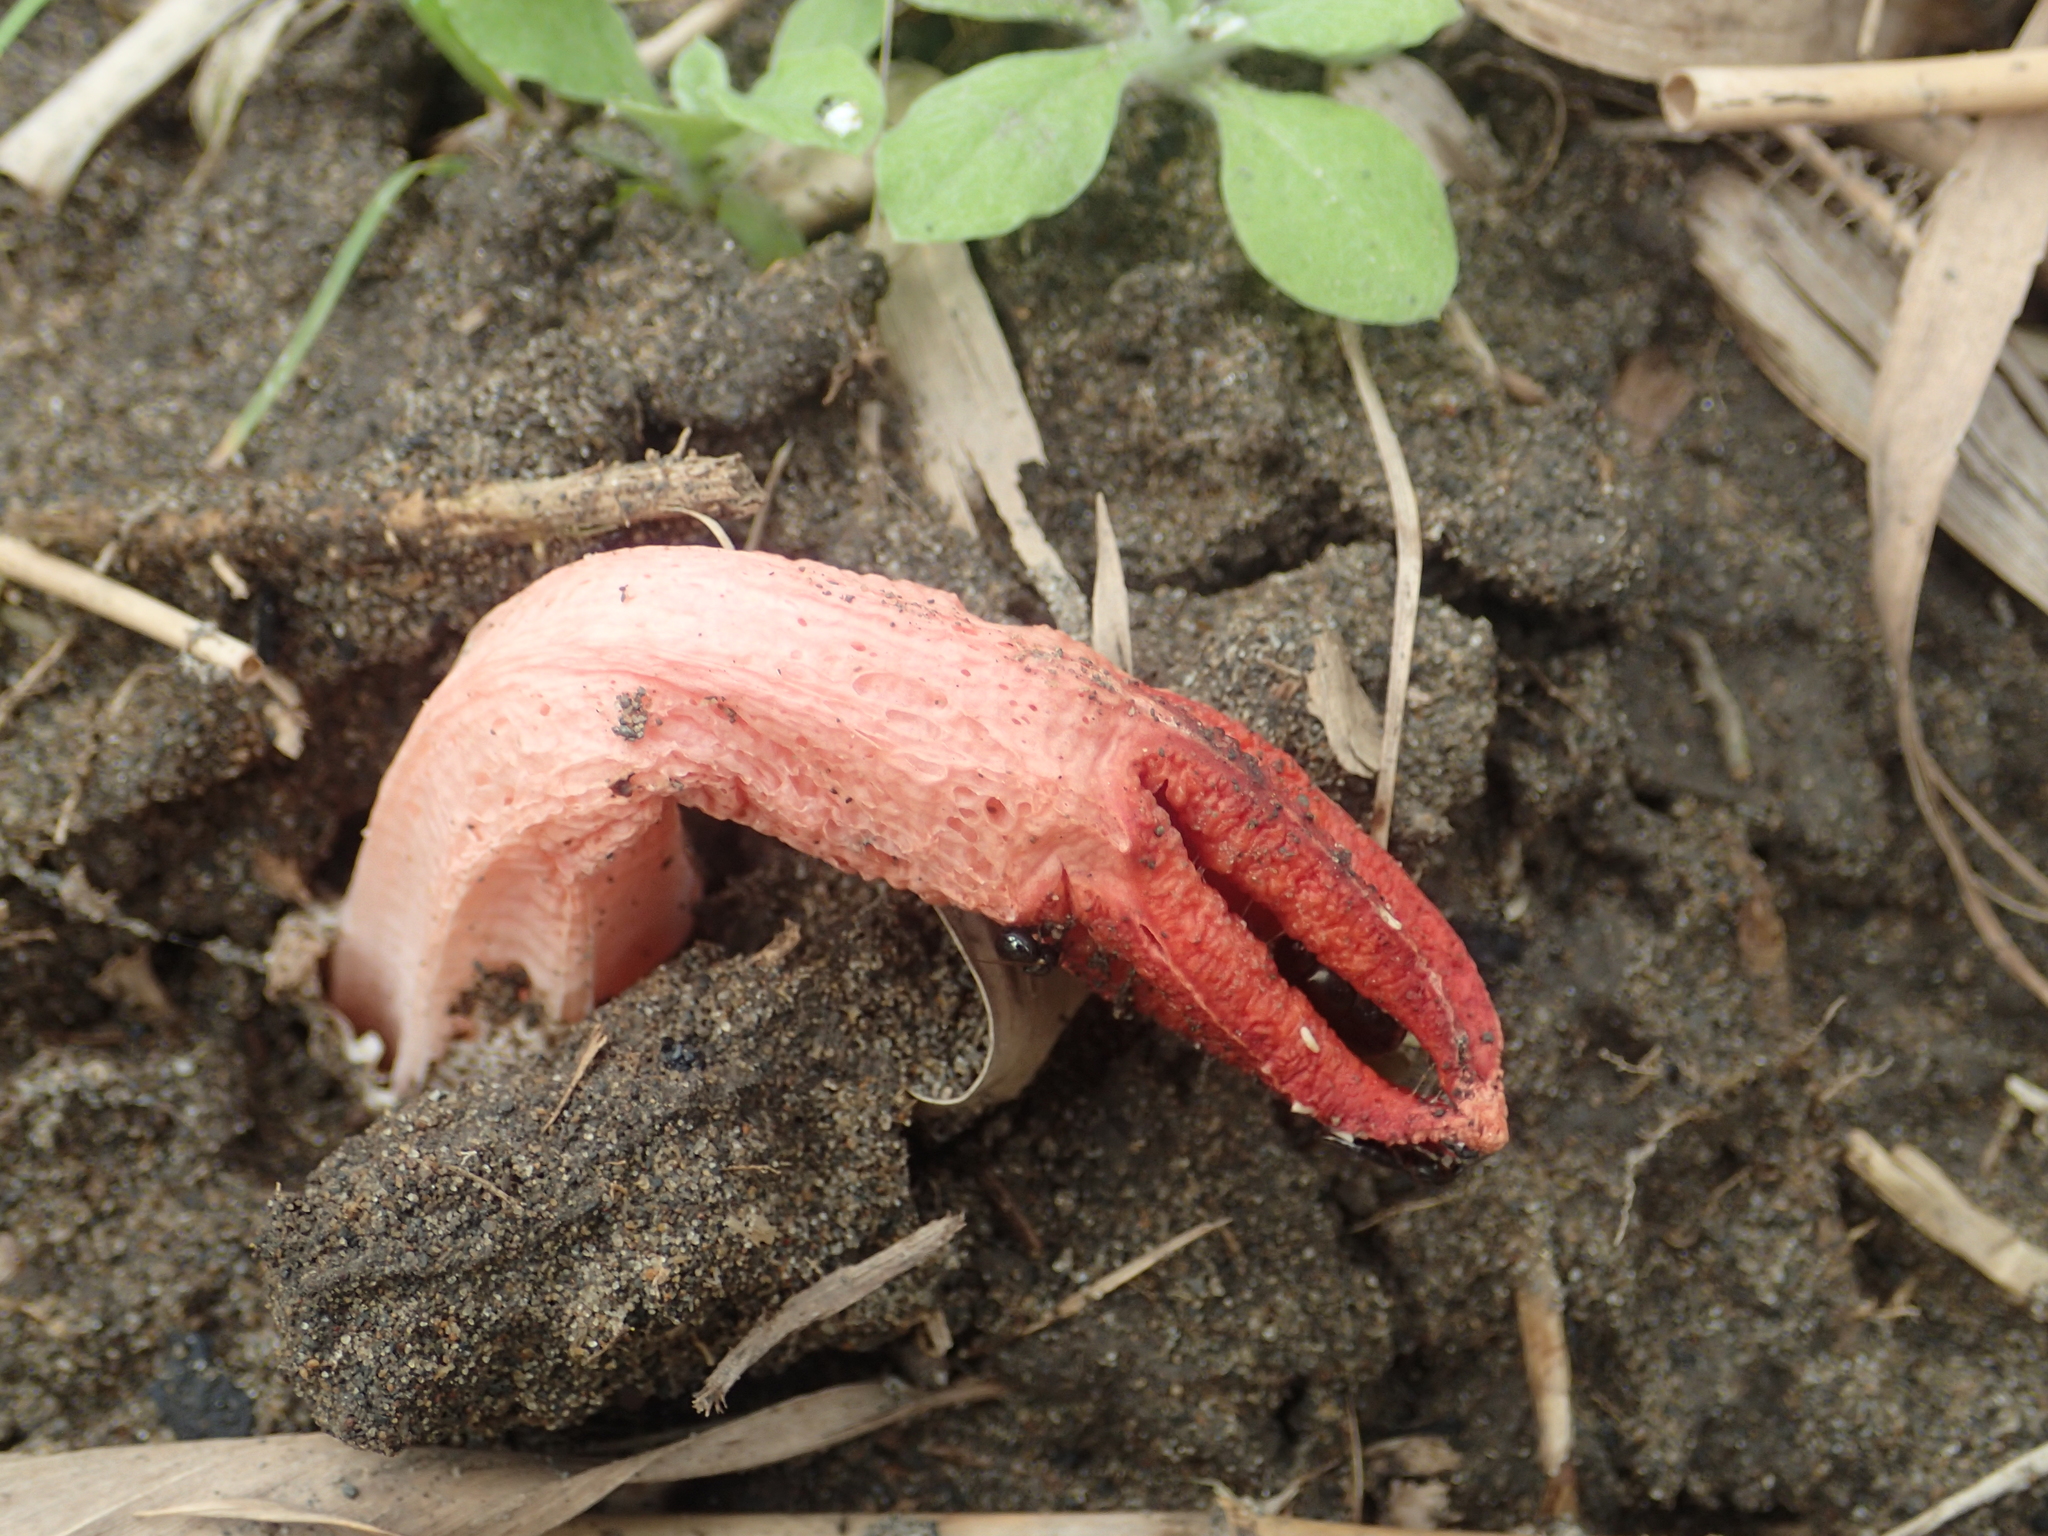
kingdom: Fungi
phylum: Basidiomycota
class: Agaricomycetes
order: Phallales
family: Phallaceae
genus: Lysurus
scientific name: Lysurus mokusin
